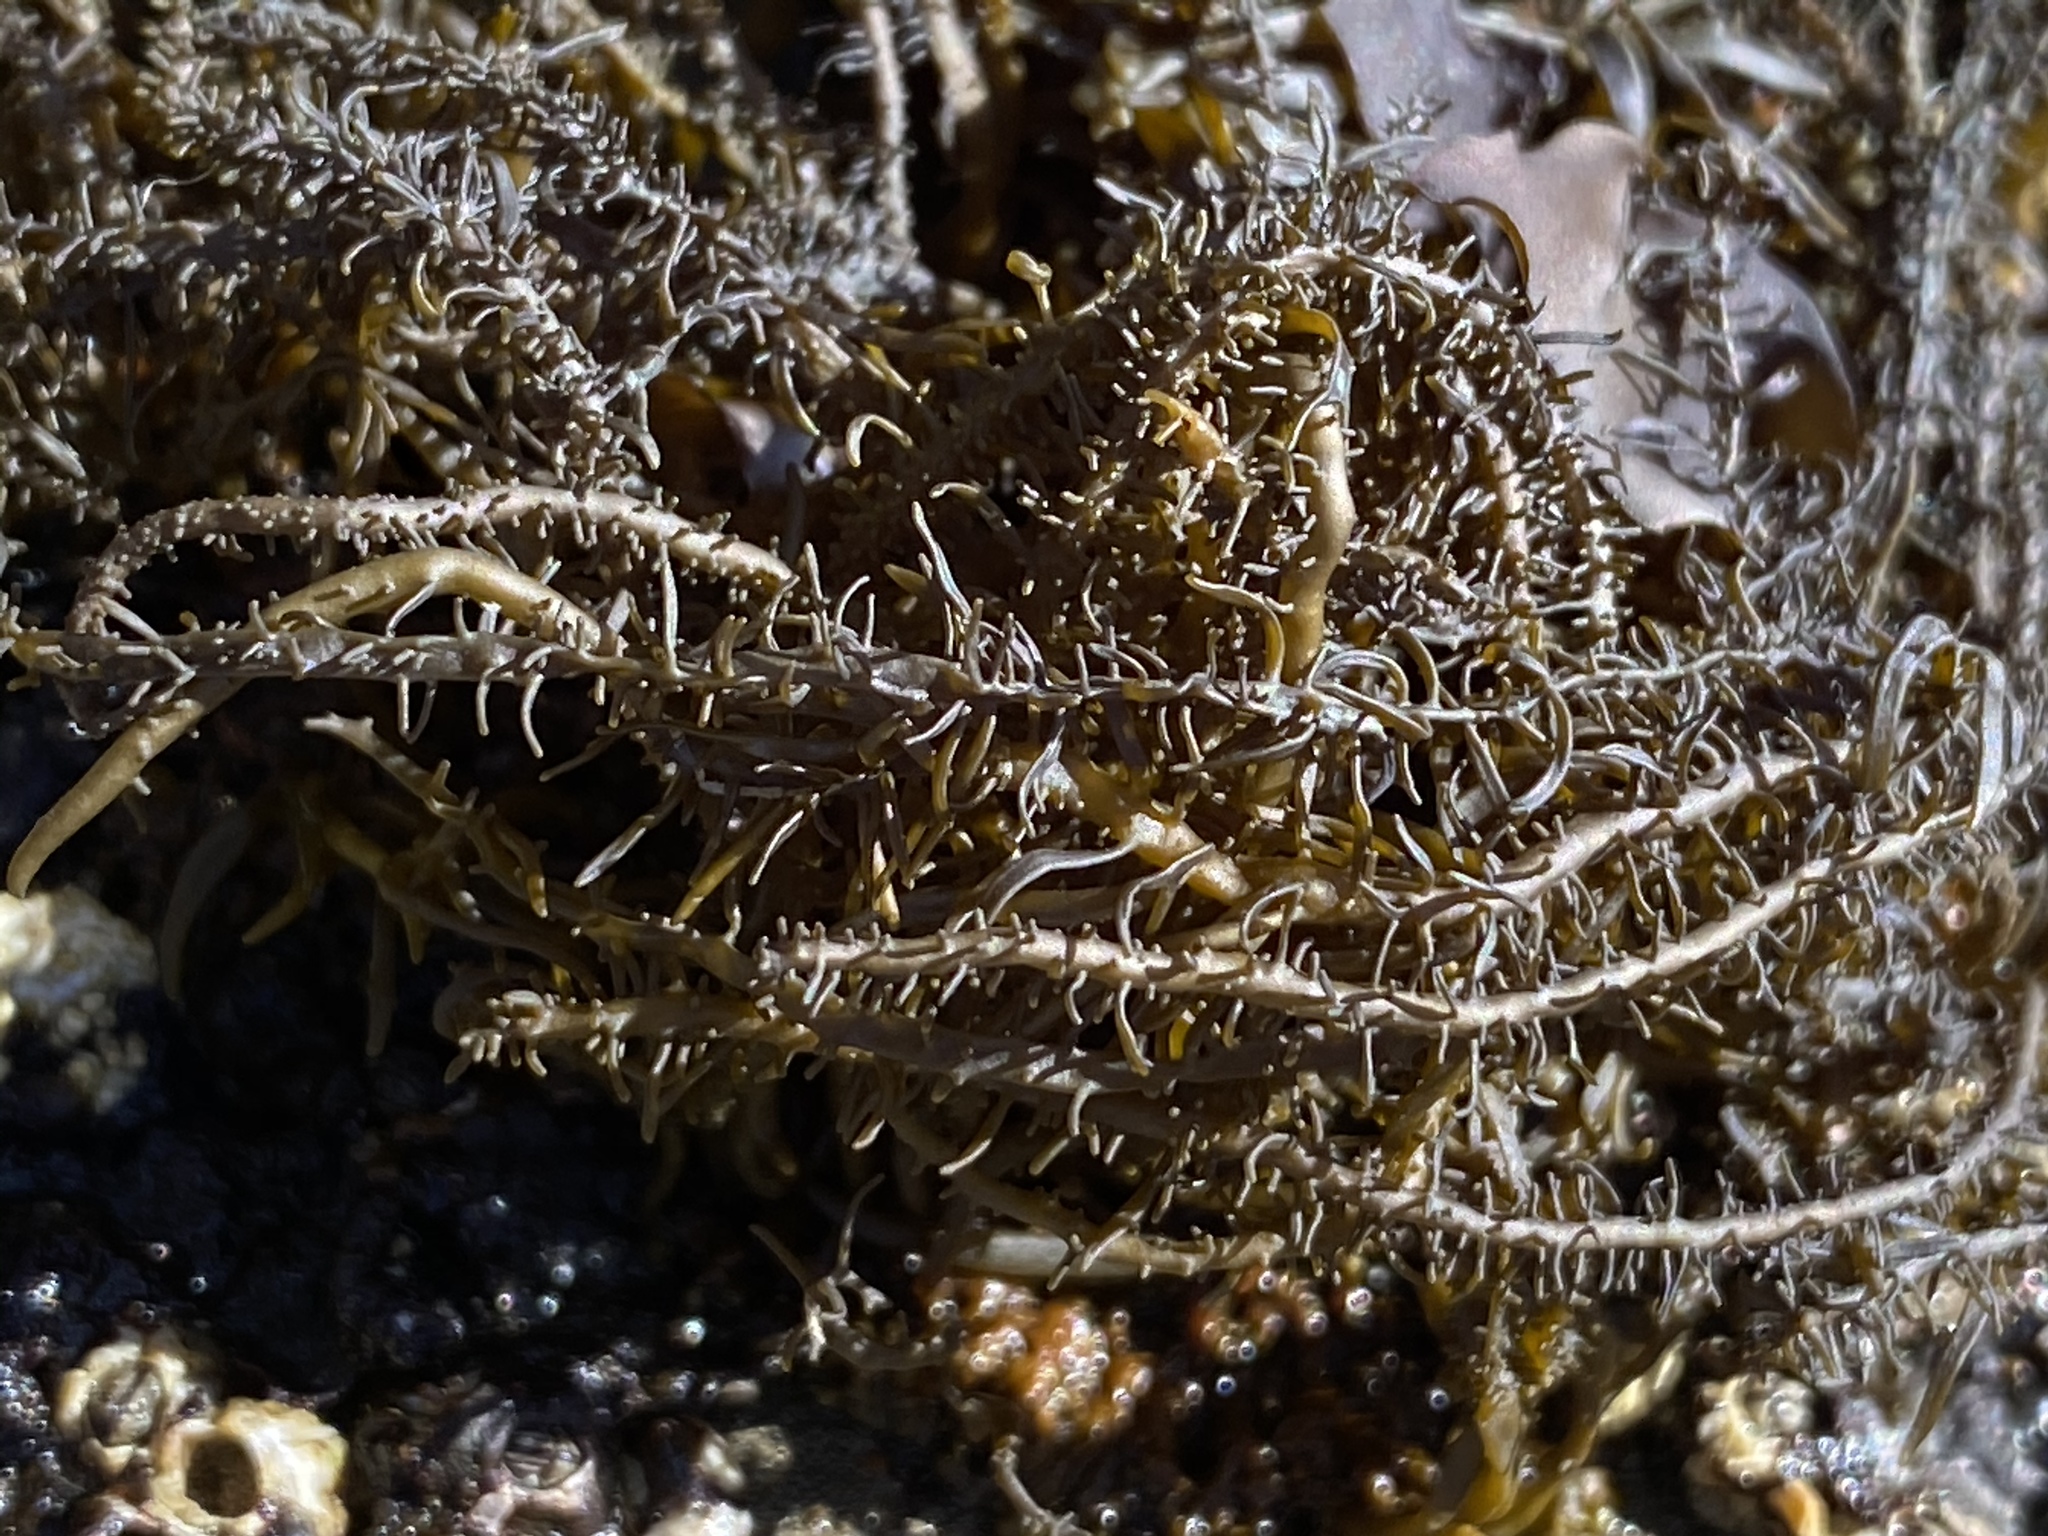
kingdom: Chromista
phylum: Ochrophyta
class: Phaeophyceae
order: Scytosiphonales
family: Scytosiphonaceae
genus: Analipus
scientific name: Analipus japonicus
